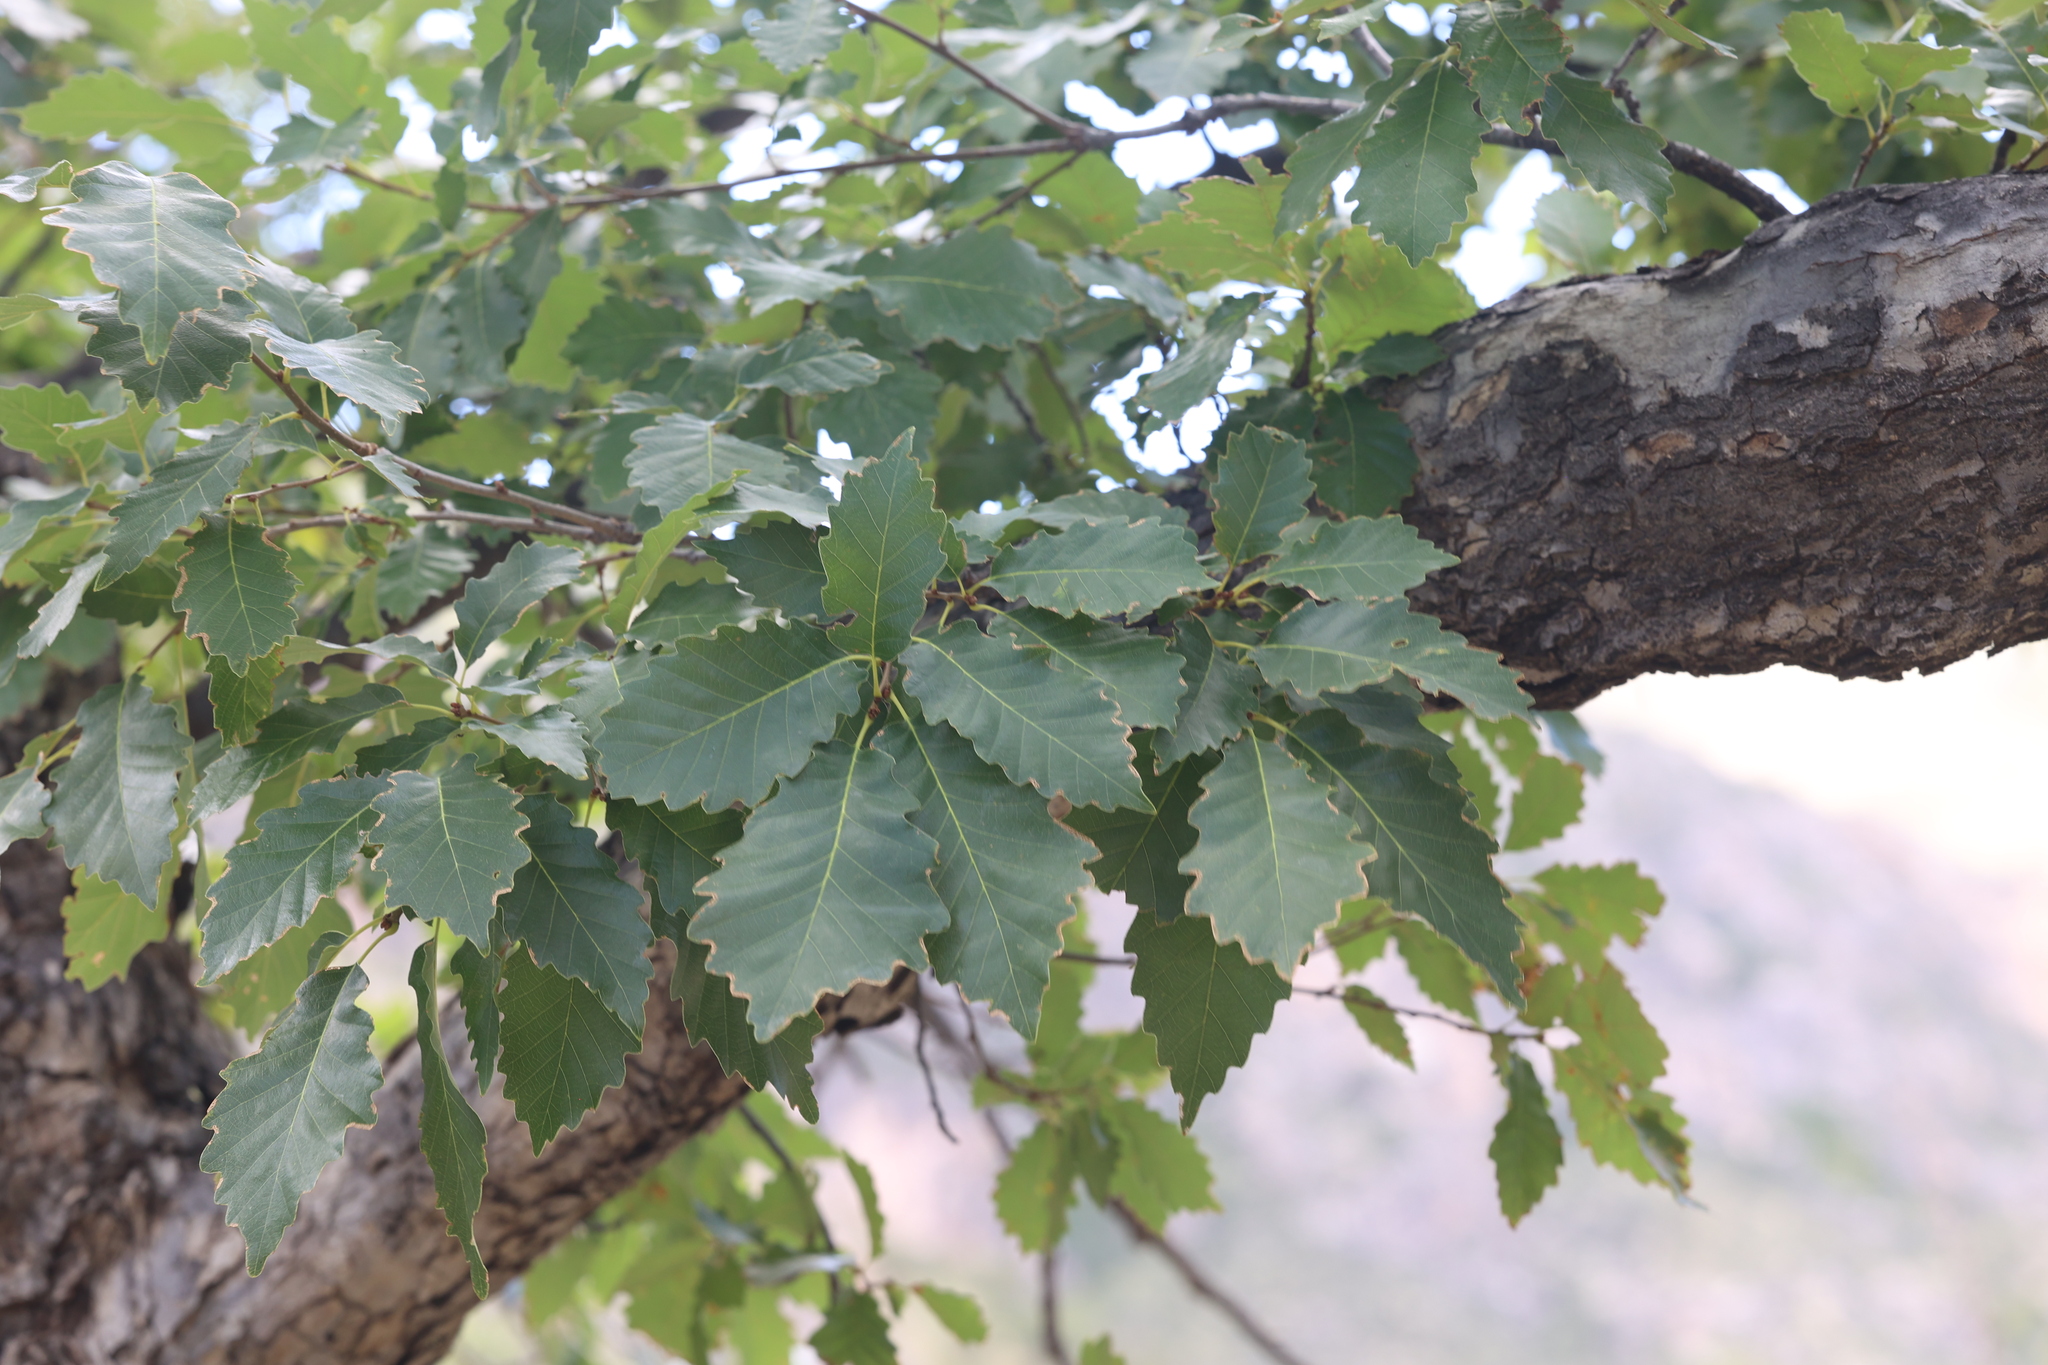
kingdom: Plantae
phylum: Tracheophyta
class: Magnoliopsida
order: Fagales
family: Fagaceae
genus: Quercus
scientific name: Quercus muehlenbergii
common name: Chinkapin oak
